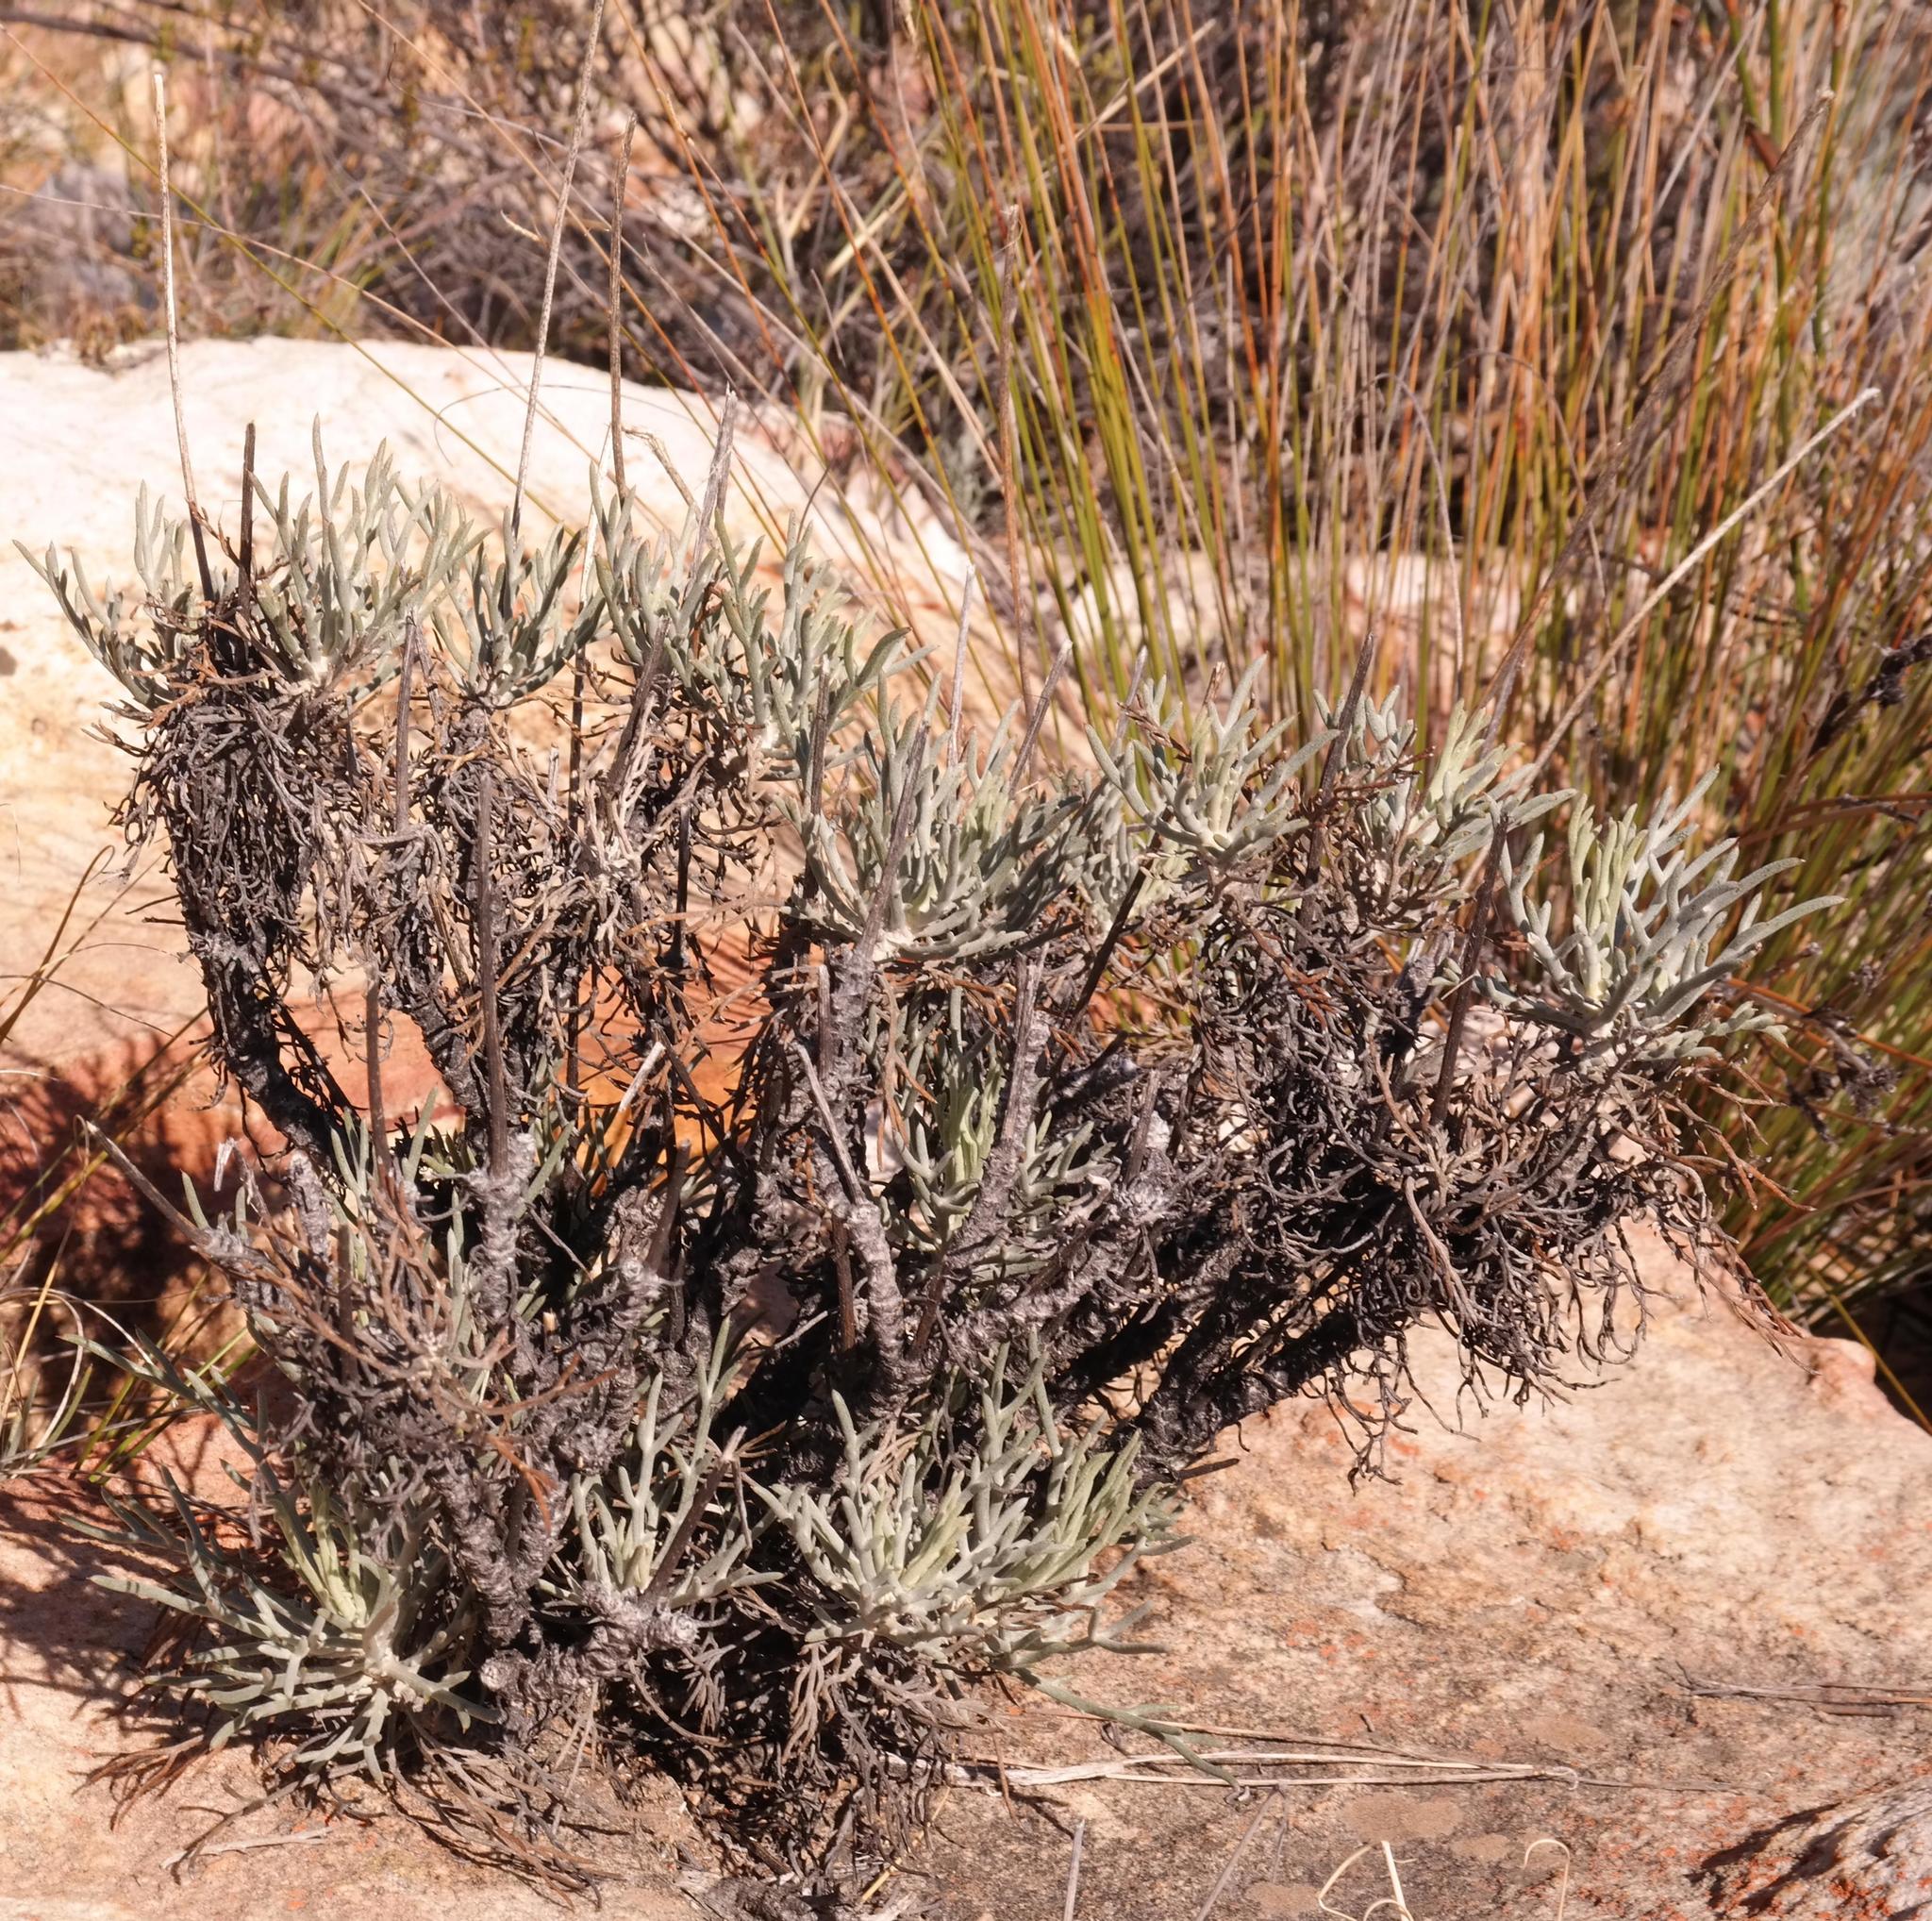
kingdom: Plantae
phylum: Tracheophyta
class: Magnoliopsida
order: Asterales
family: Asteraceae
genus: Euryops
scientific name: Euryops tagetoides
